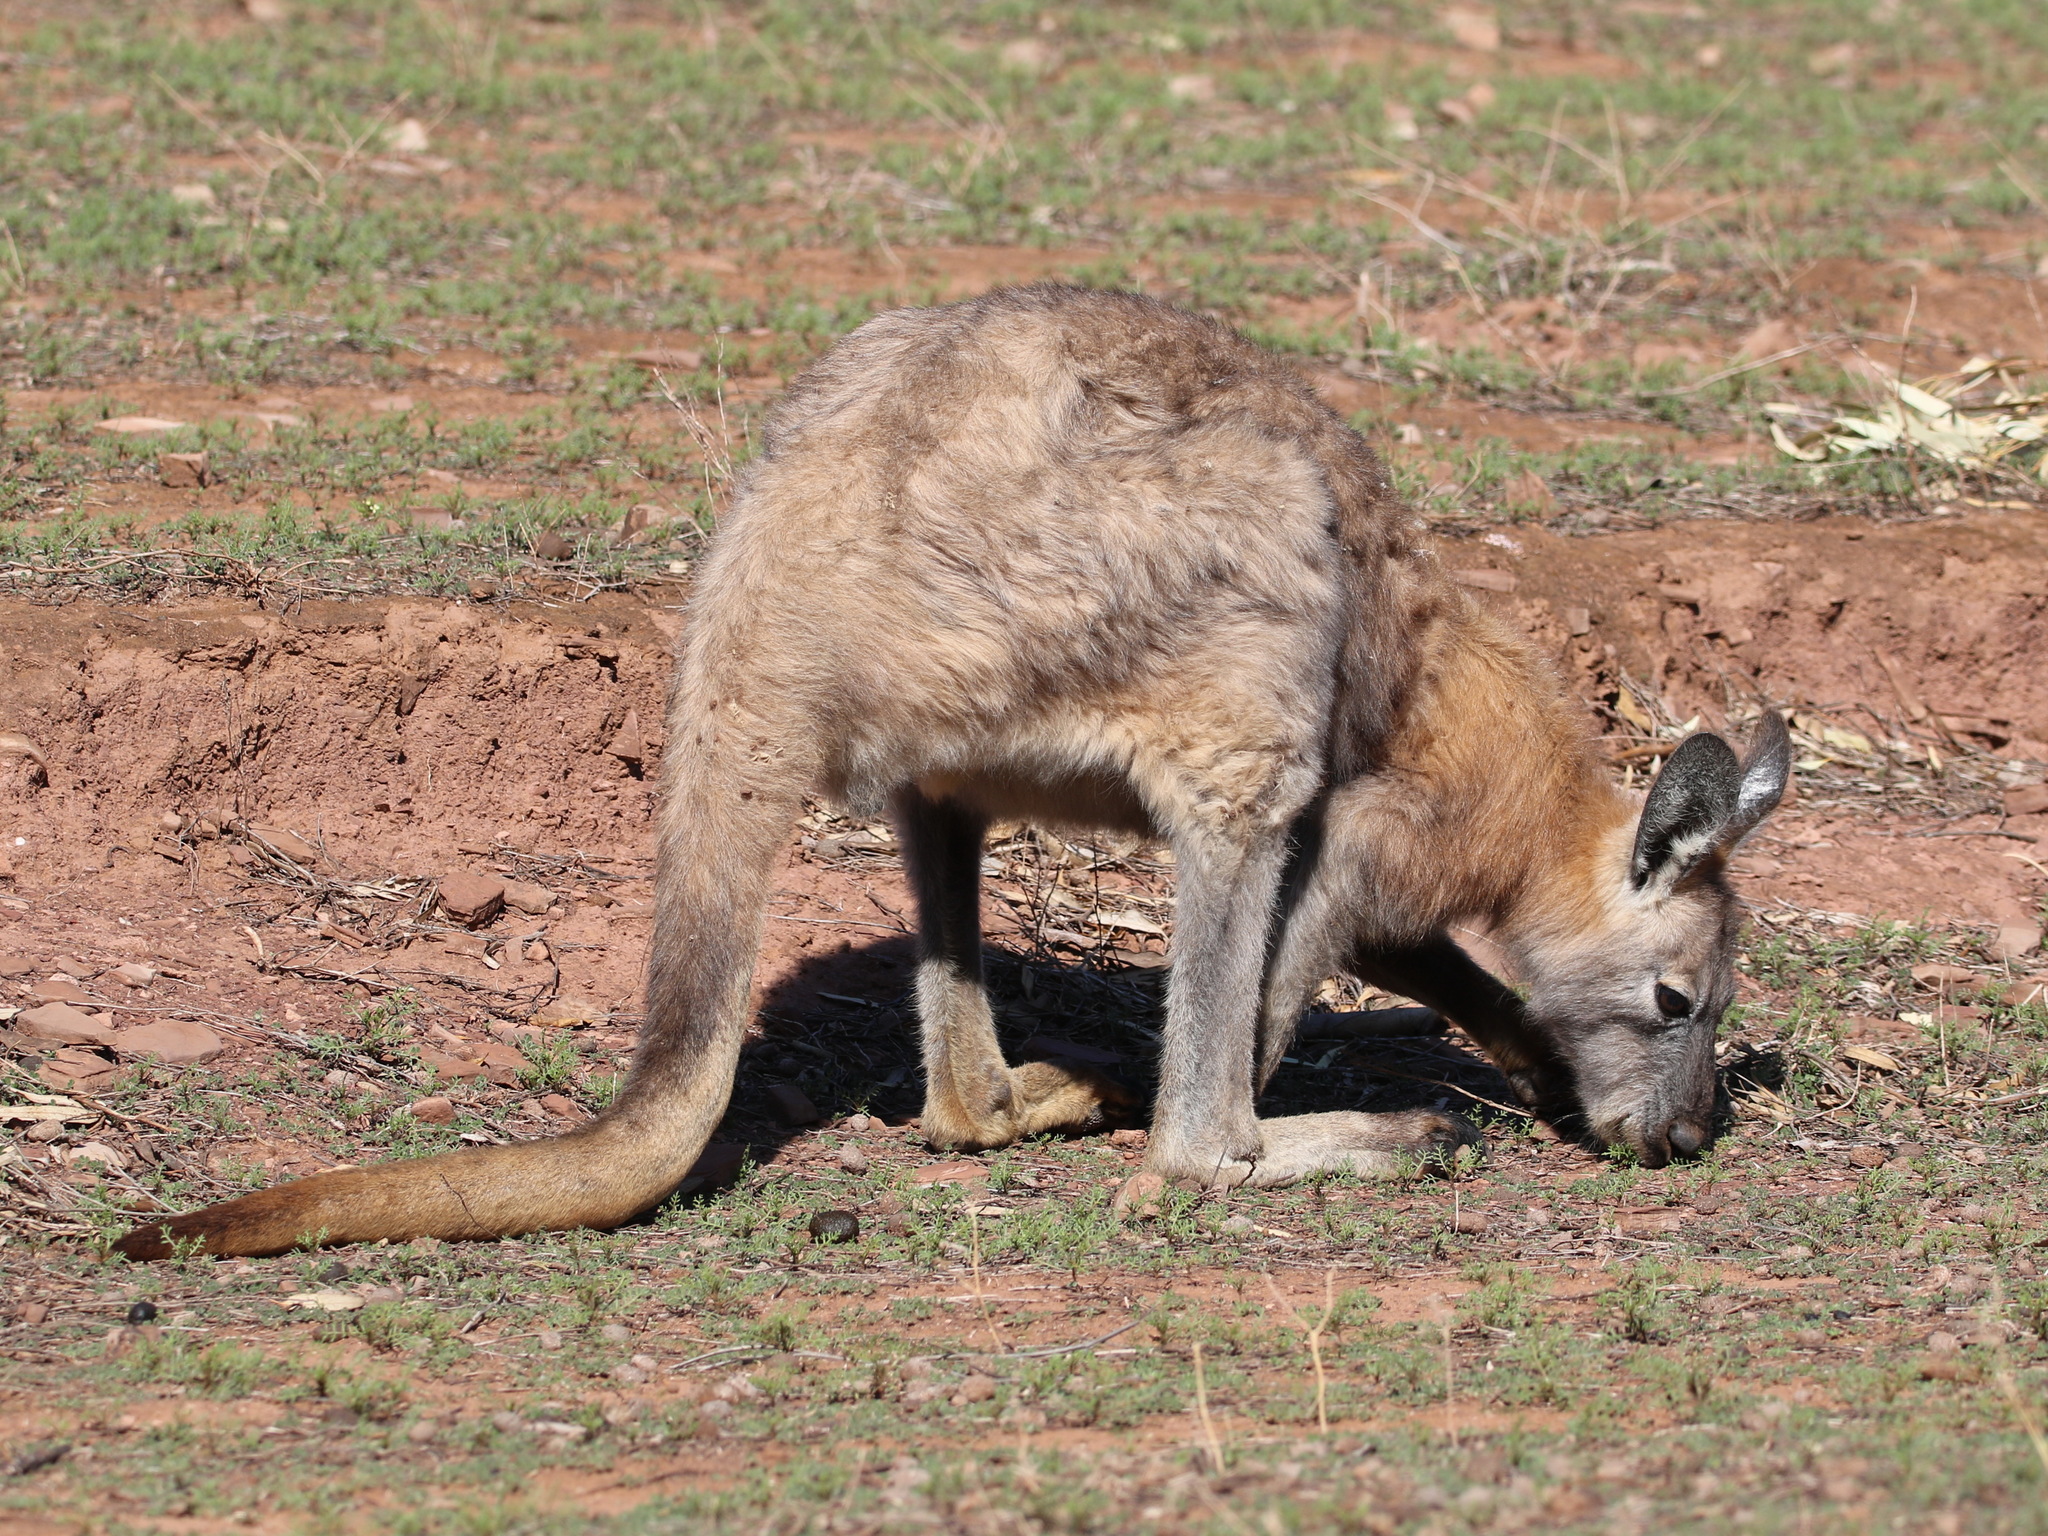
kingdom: Animalia
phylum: Chordata
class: Mammalia
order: Diprotodontia
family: Macropodidae
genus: Macropus
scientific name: Macropus robustus
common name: Eastern wallaroo
